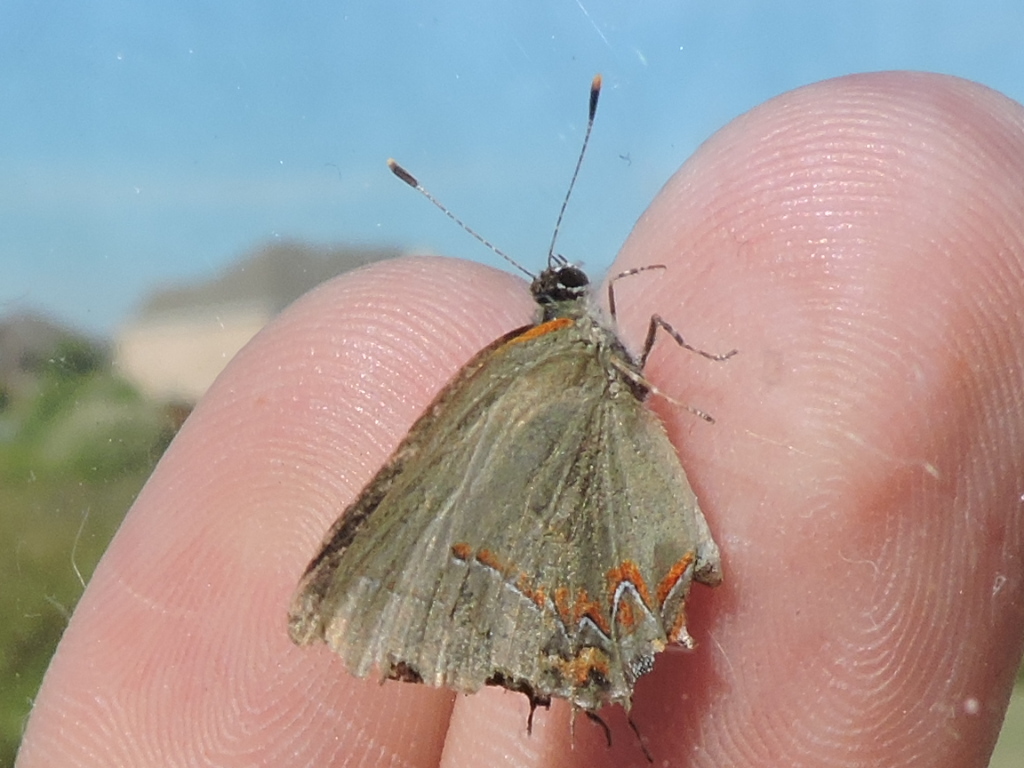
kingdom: Animalia
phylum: Arthropoda
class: Insecta
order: Lepidoptera
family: Lycaenidae
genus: Calycopis
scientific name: Calycopis cecrops
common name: Red-banded hairstreak
